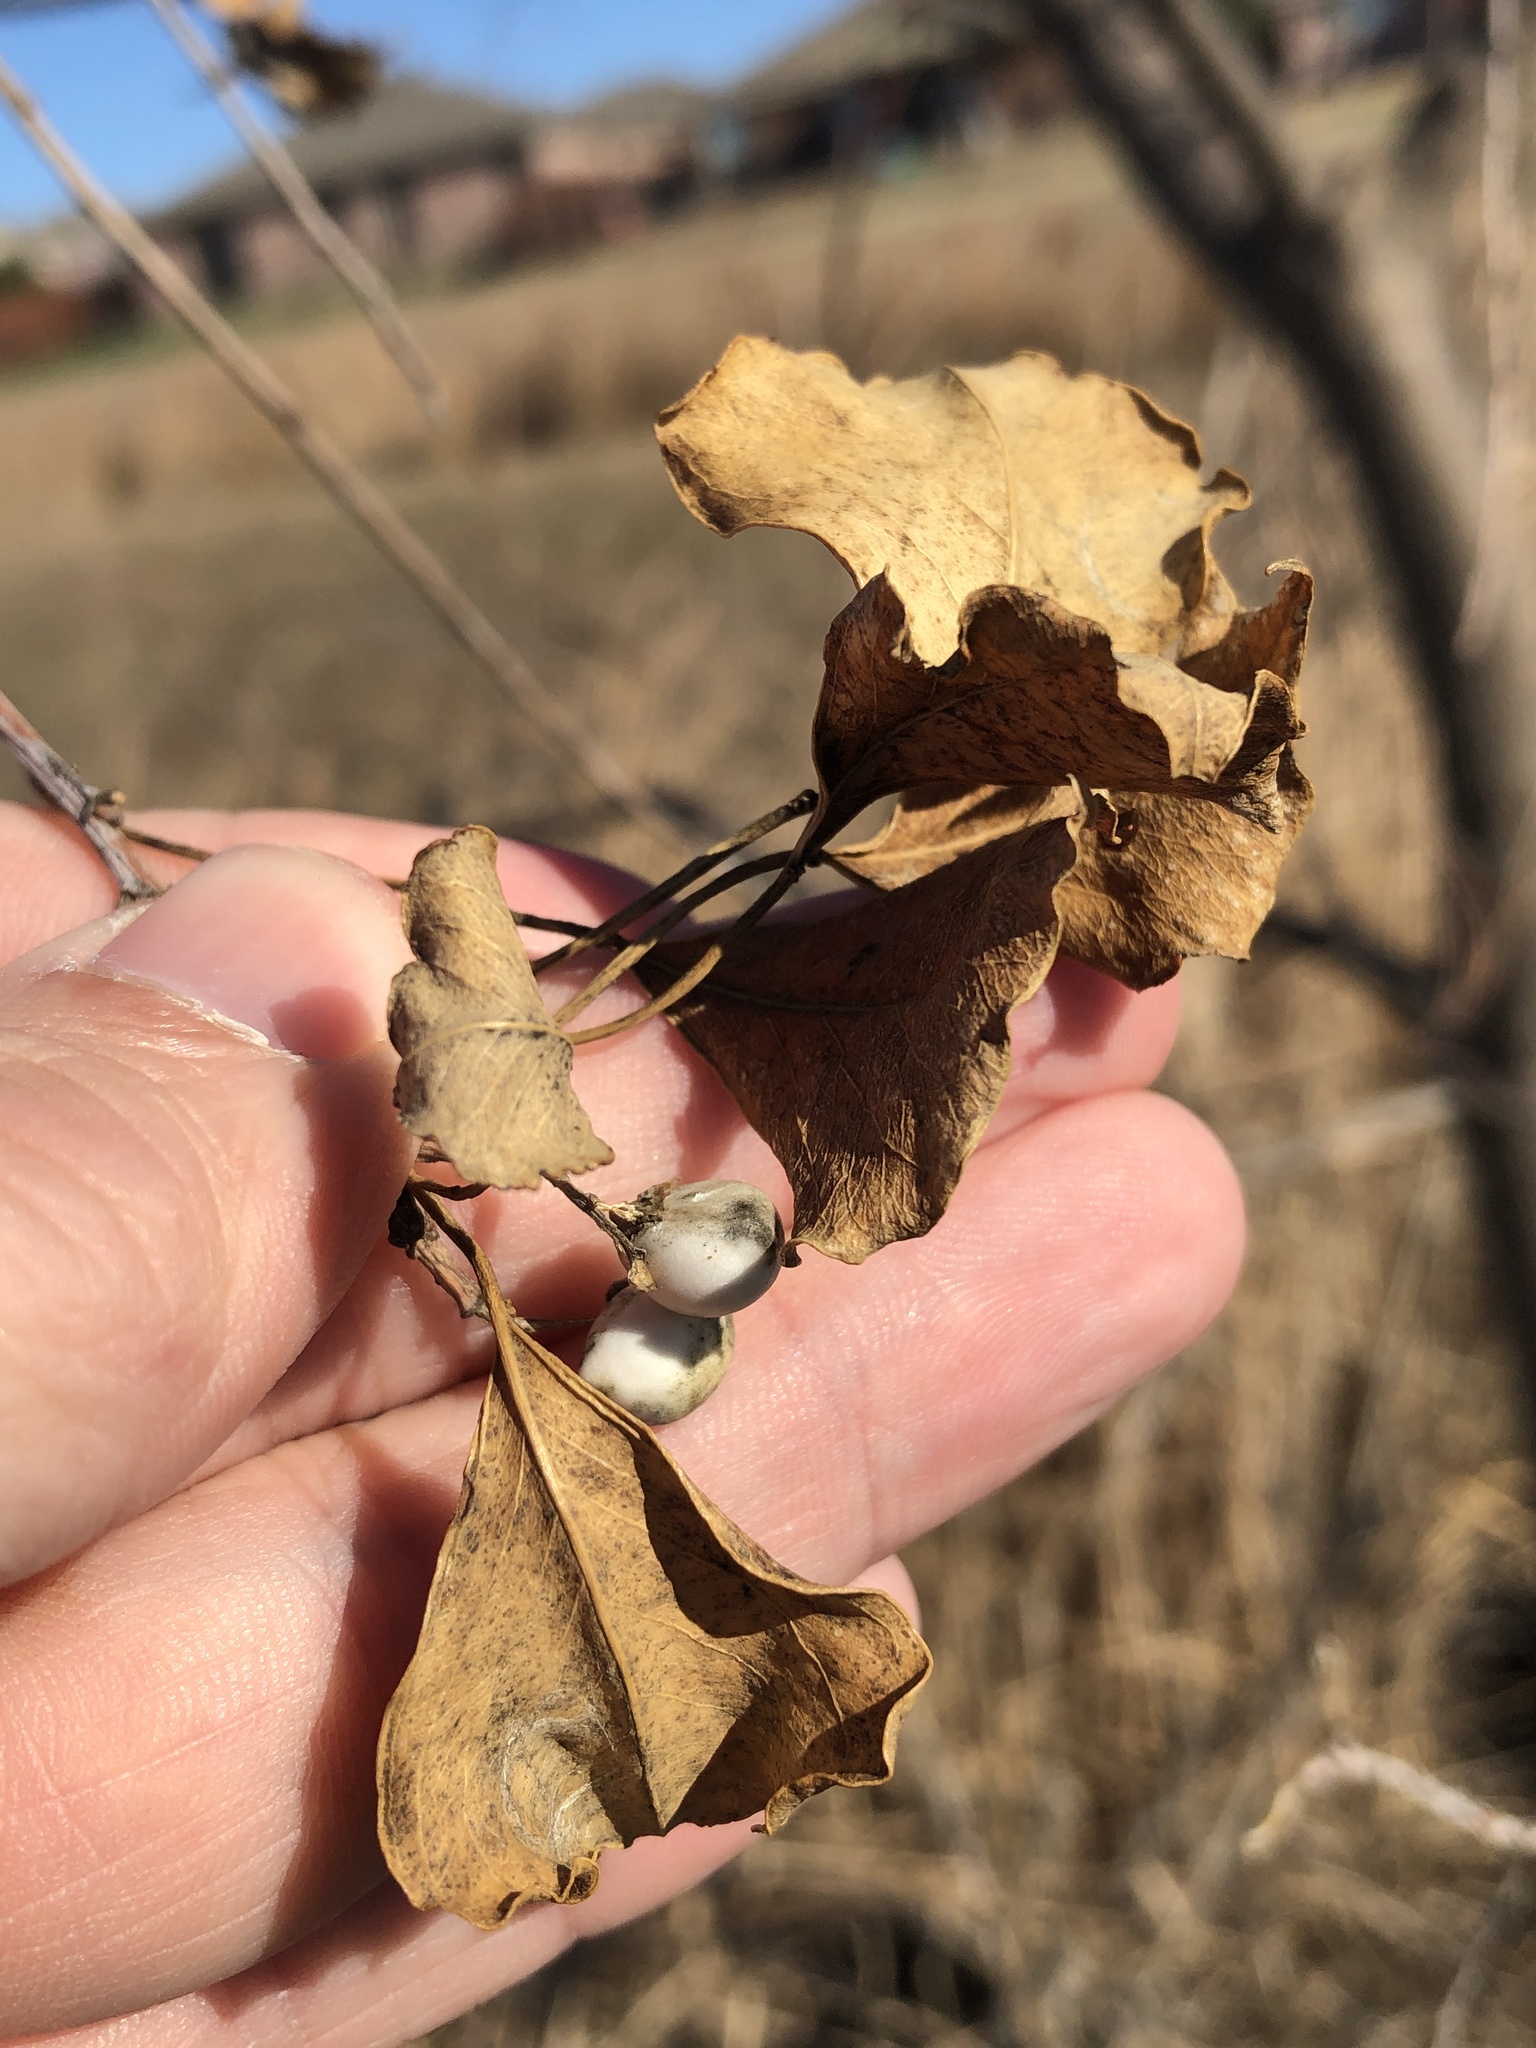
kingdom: Plantae
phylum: Tracheophyta
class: Magnoliopsida
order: Malpighiales
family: Euphorbiaceae
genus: Triadica
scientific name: Triadica sebifera
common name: Chinese tallow
